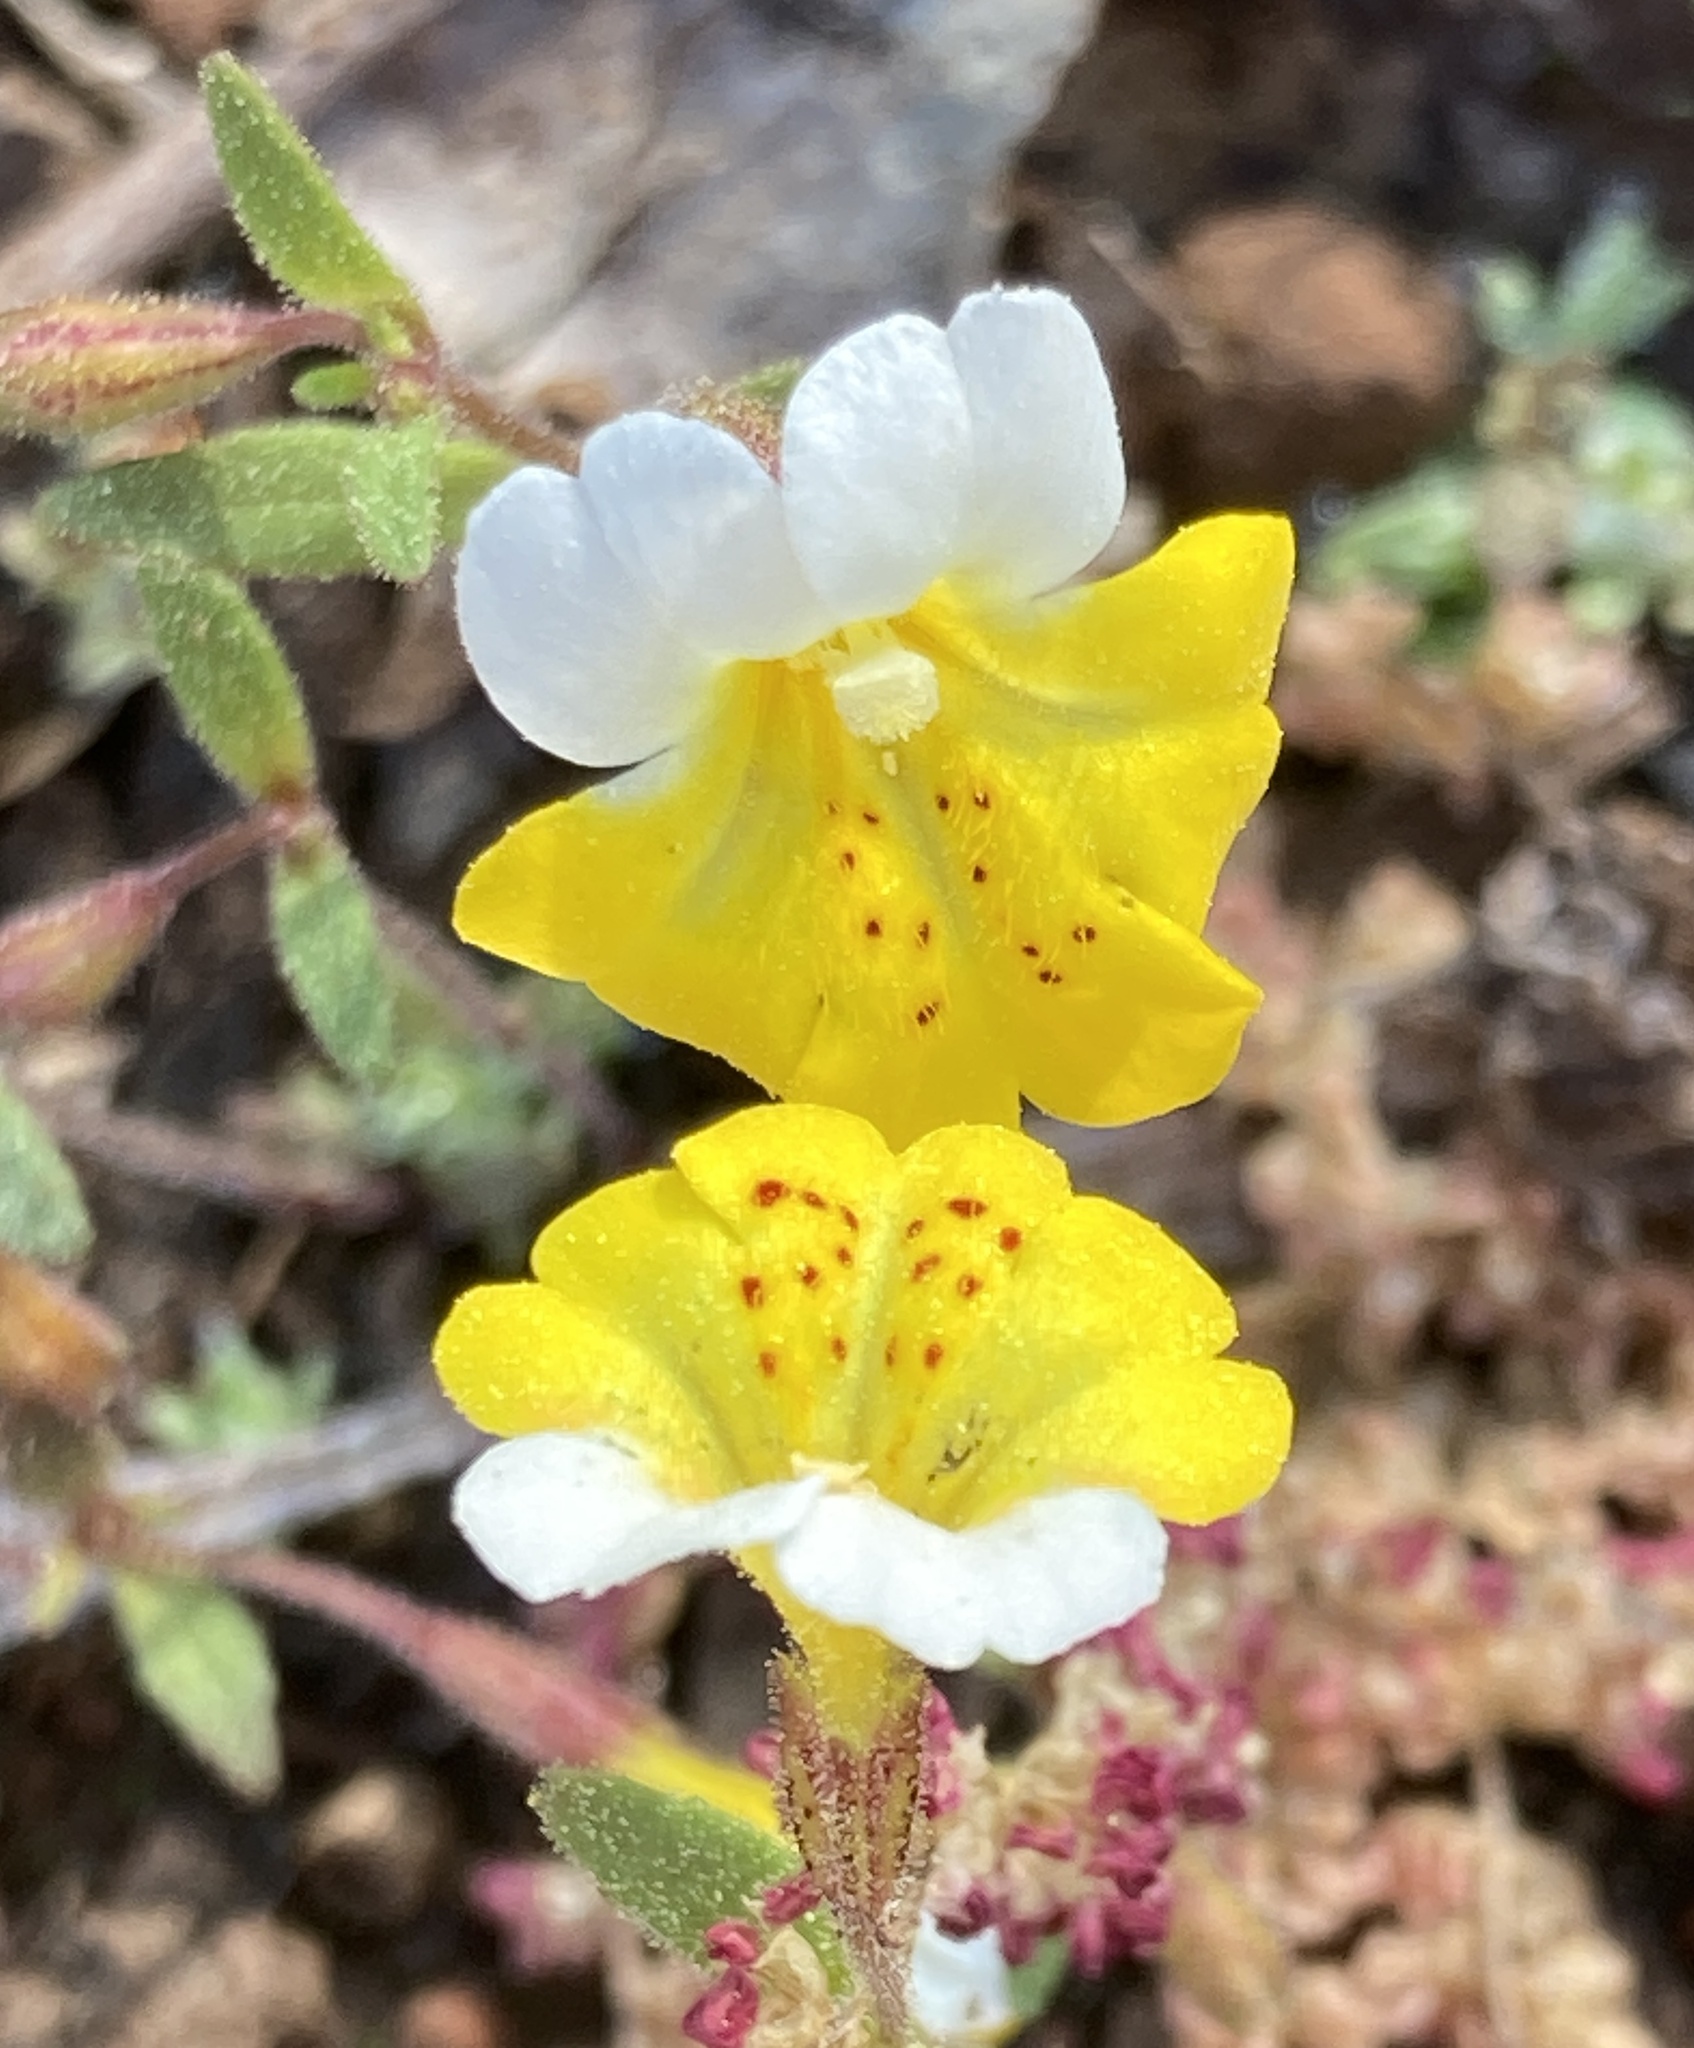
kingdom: Plantae
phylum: Tracheophyta
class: Magnoliopsida
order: Lamiales
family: Phrymaceae
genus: Erythranthe
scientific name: Erythranthe bicolor
